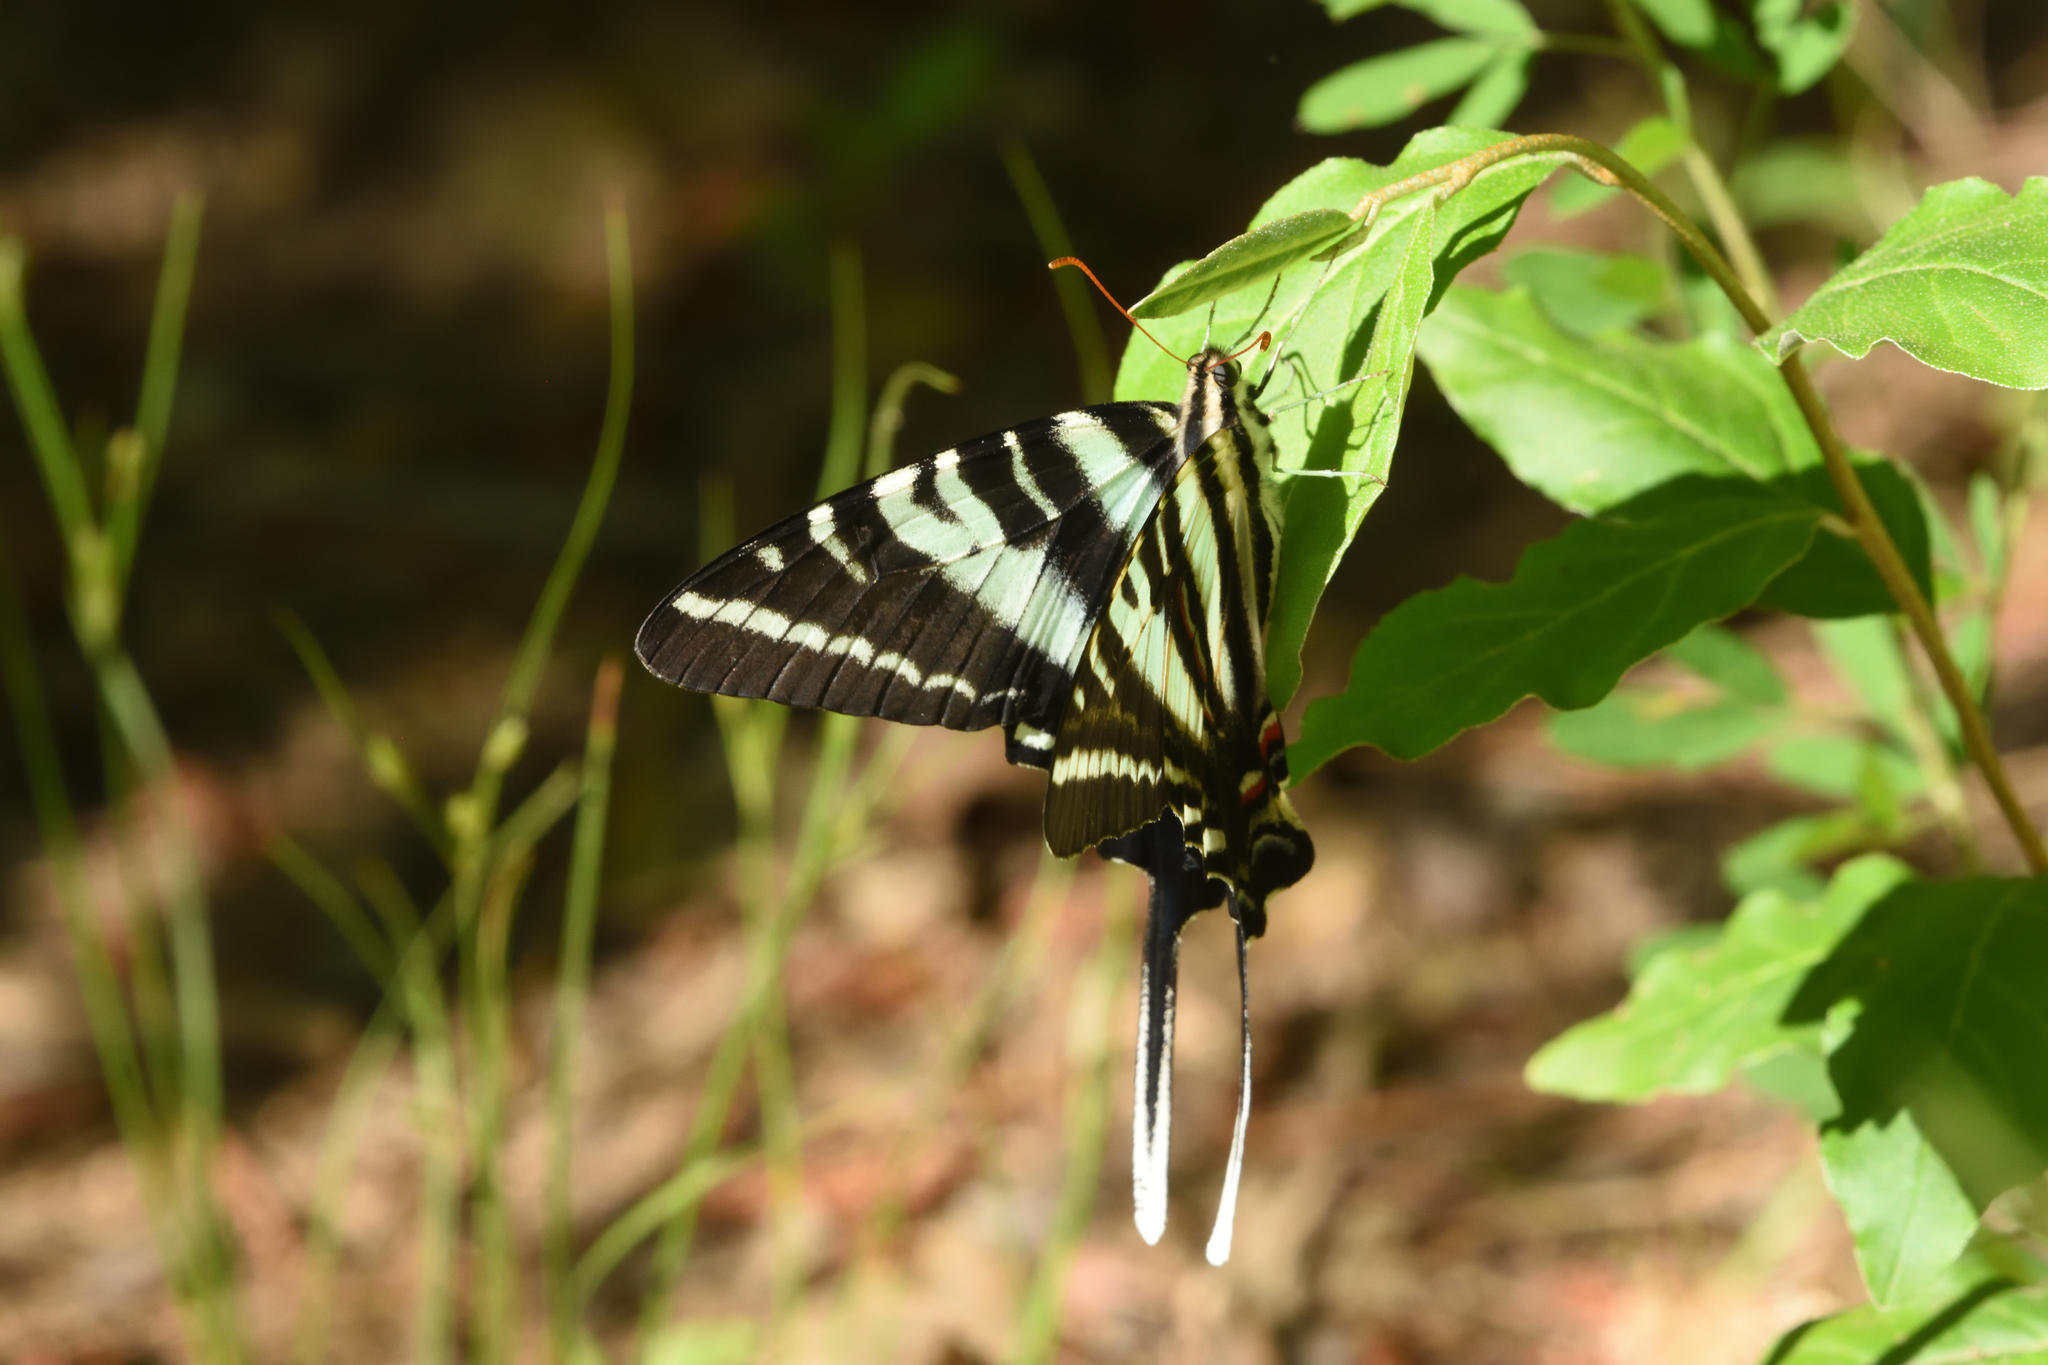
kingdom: Animalia
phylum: Arthropoda
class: Insecta
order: Lepidoptera
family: Papilionidae
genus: Protographium
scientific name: Protographium marcellus
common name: Zebra swallowtail
